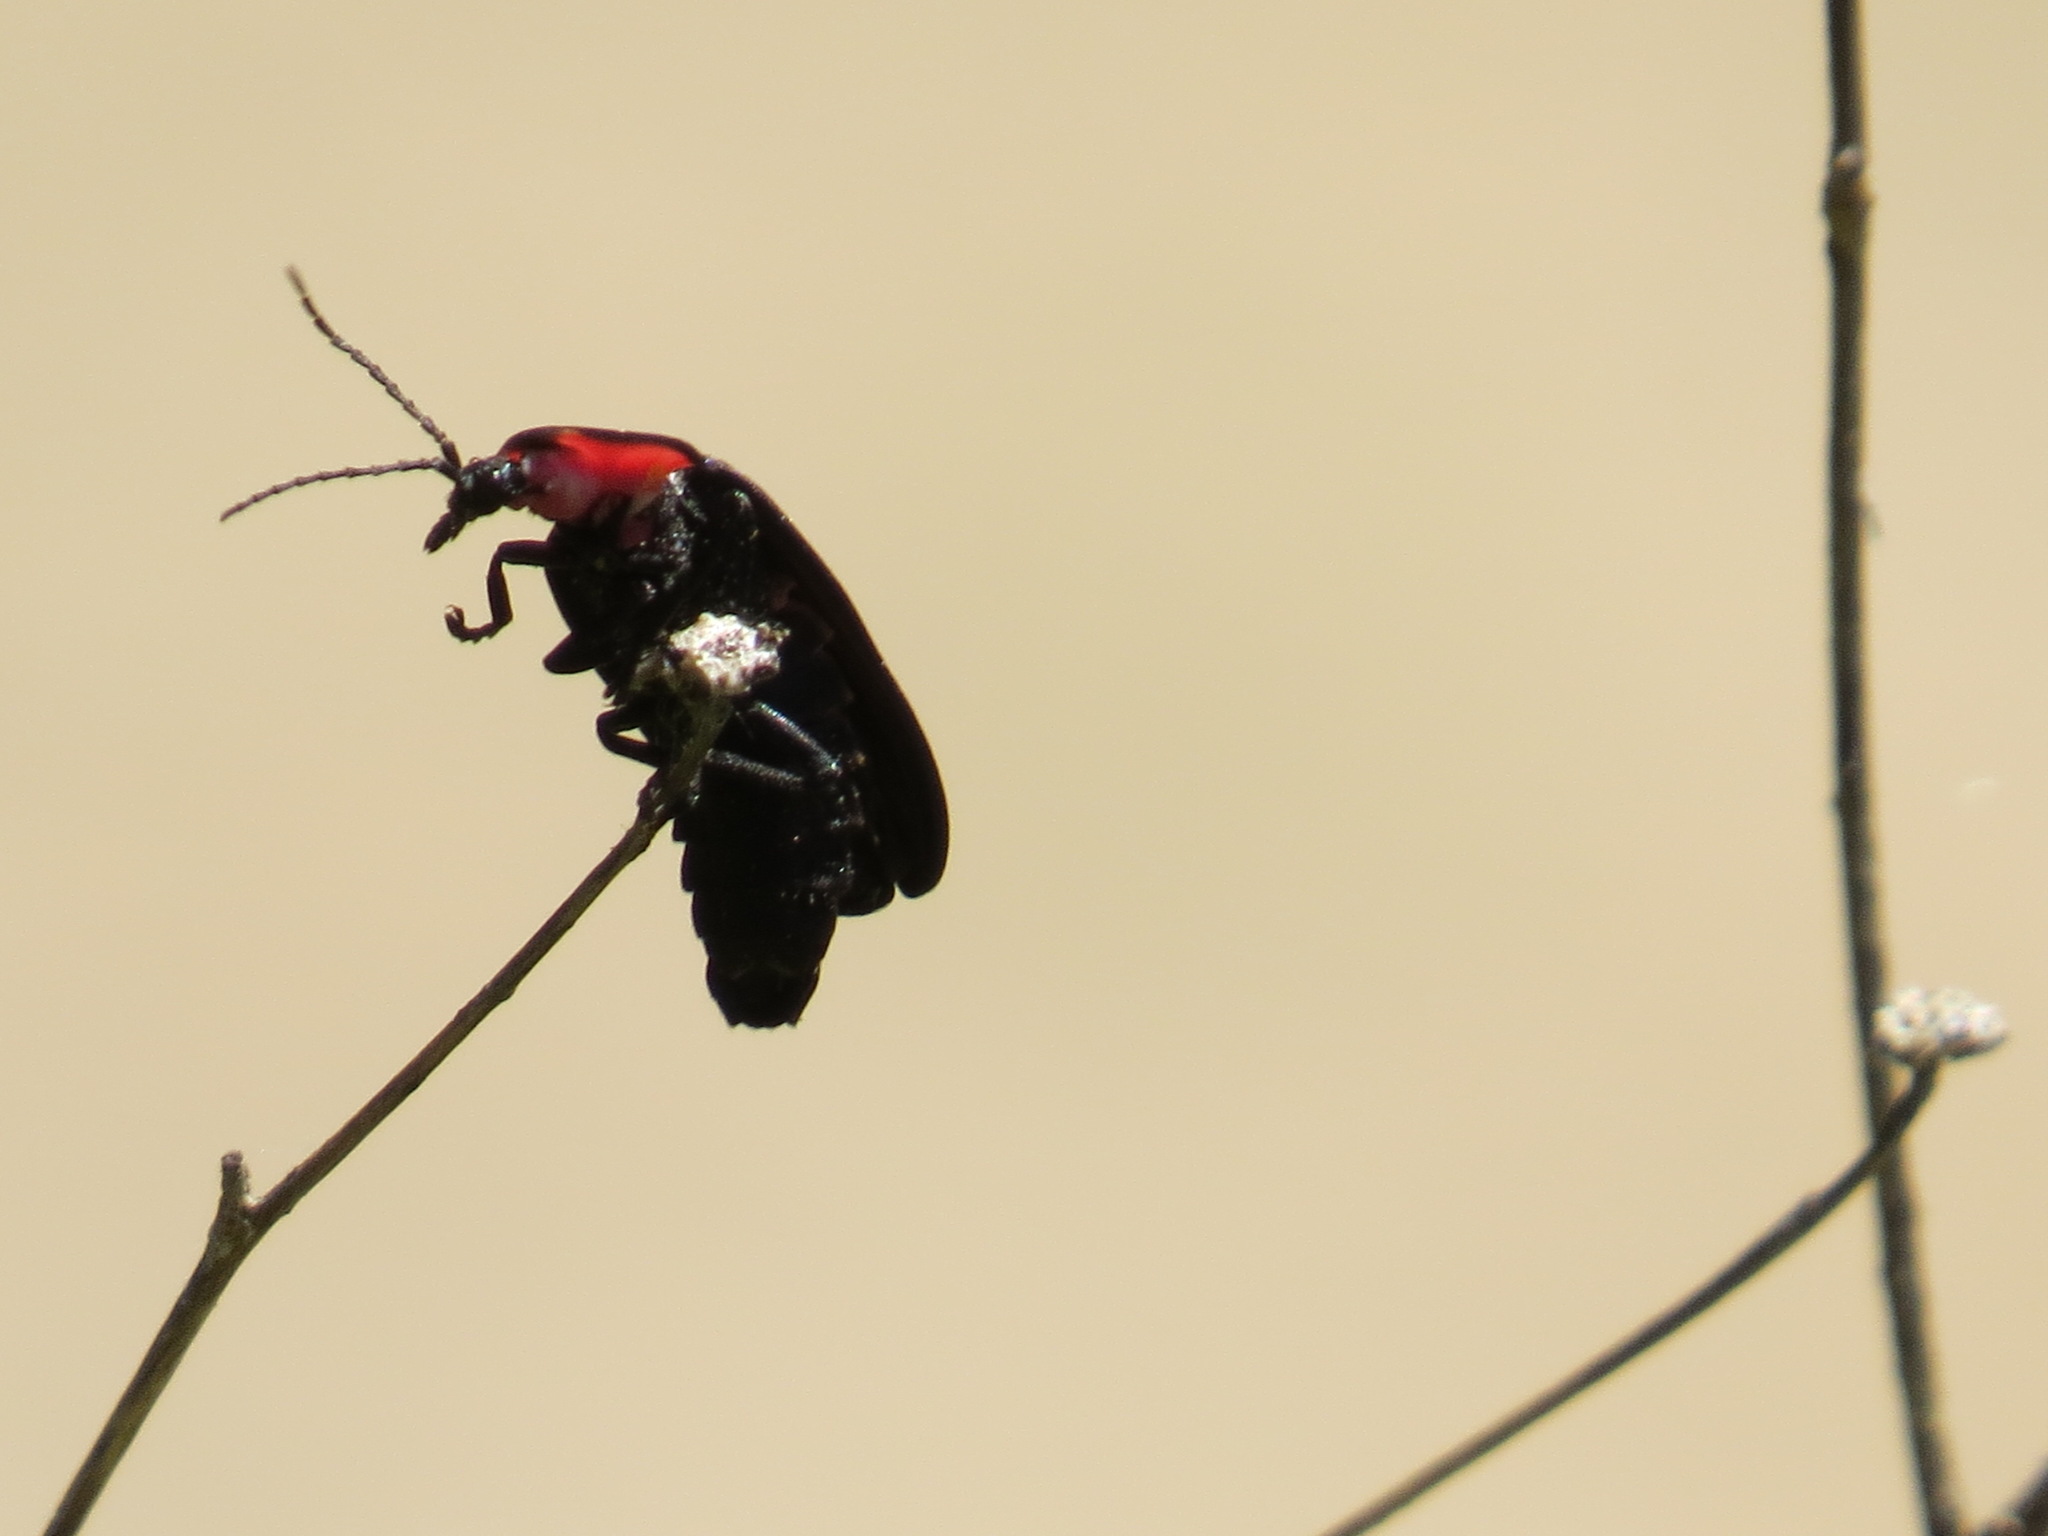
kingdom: Animalia
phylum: Arthropoda
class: Insecta
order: Coleoptera
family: Lampyridae
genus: Photinus
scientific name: Photinus californica
